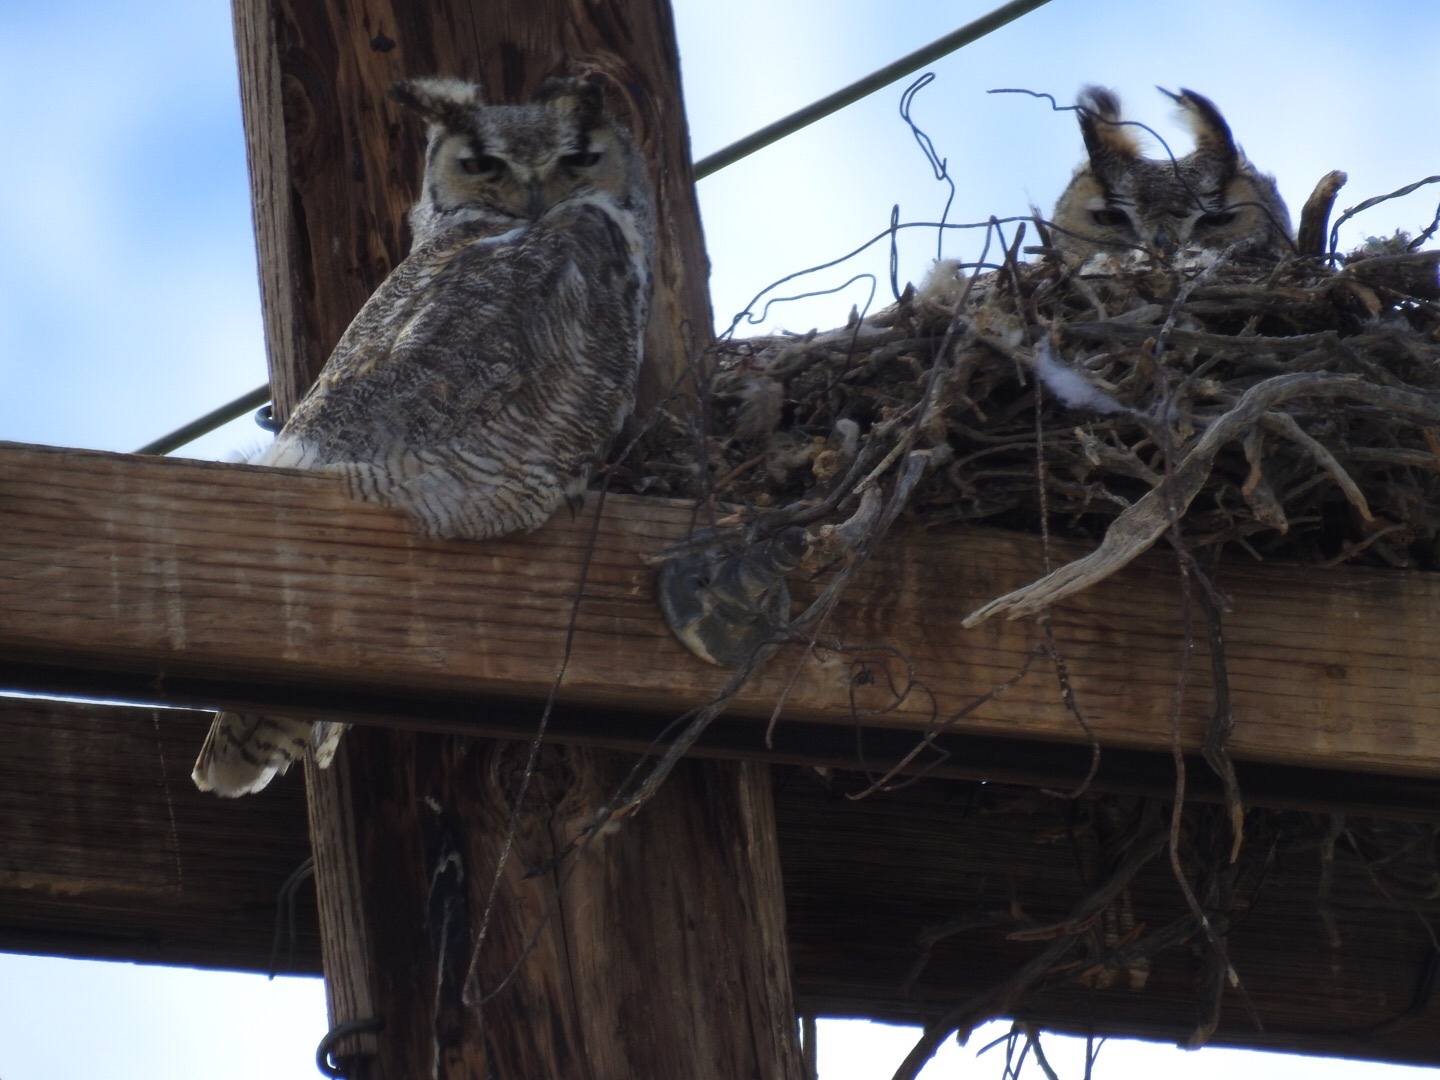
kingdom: Animalia
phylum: Chordata
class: Aves
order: Strigiformes
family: Strigidae
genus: Bubo
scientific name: Bubo virginianus
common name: Great horned owl
